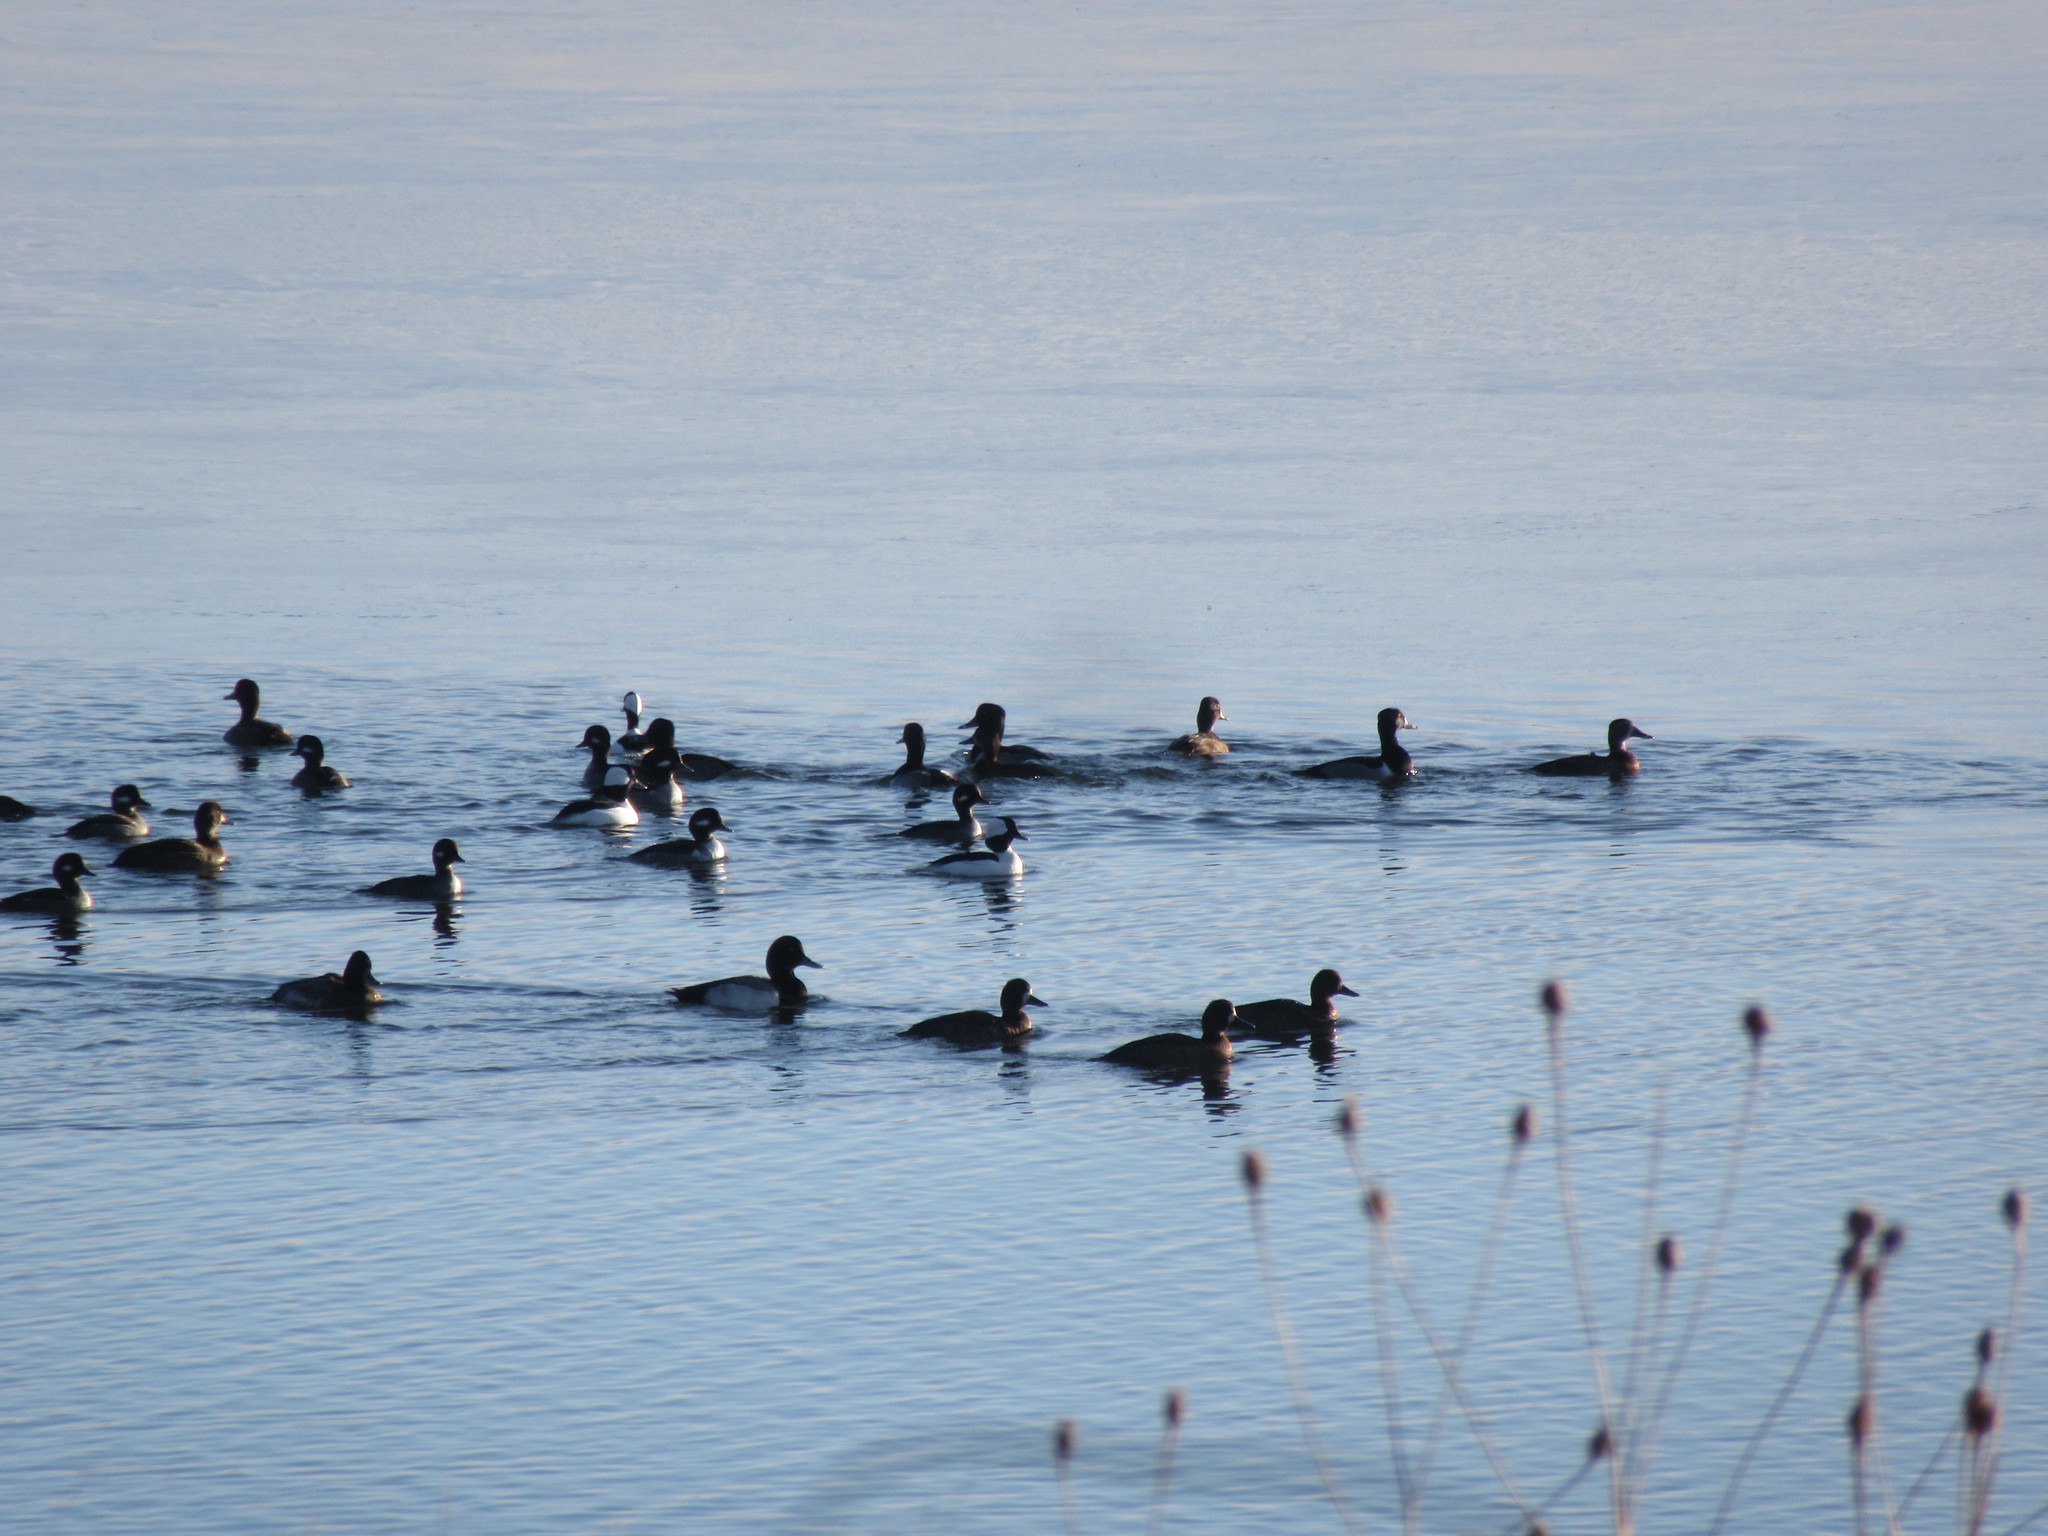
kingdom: Animalia
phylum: Chordata
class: Aves
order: Anseriformes
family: Anatidae
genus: Bucephala
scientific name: Bucephala albeola
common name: Bufflehead
